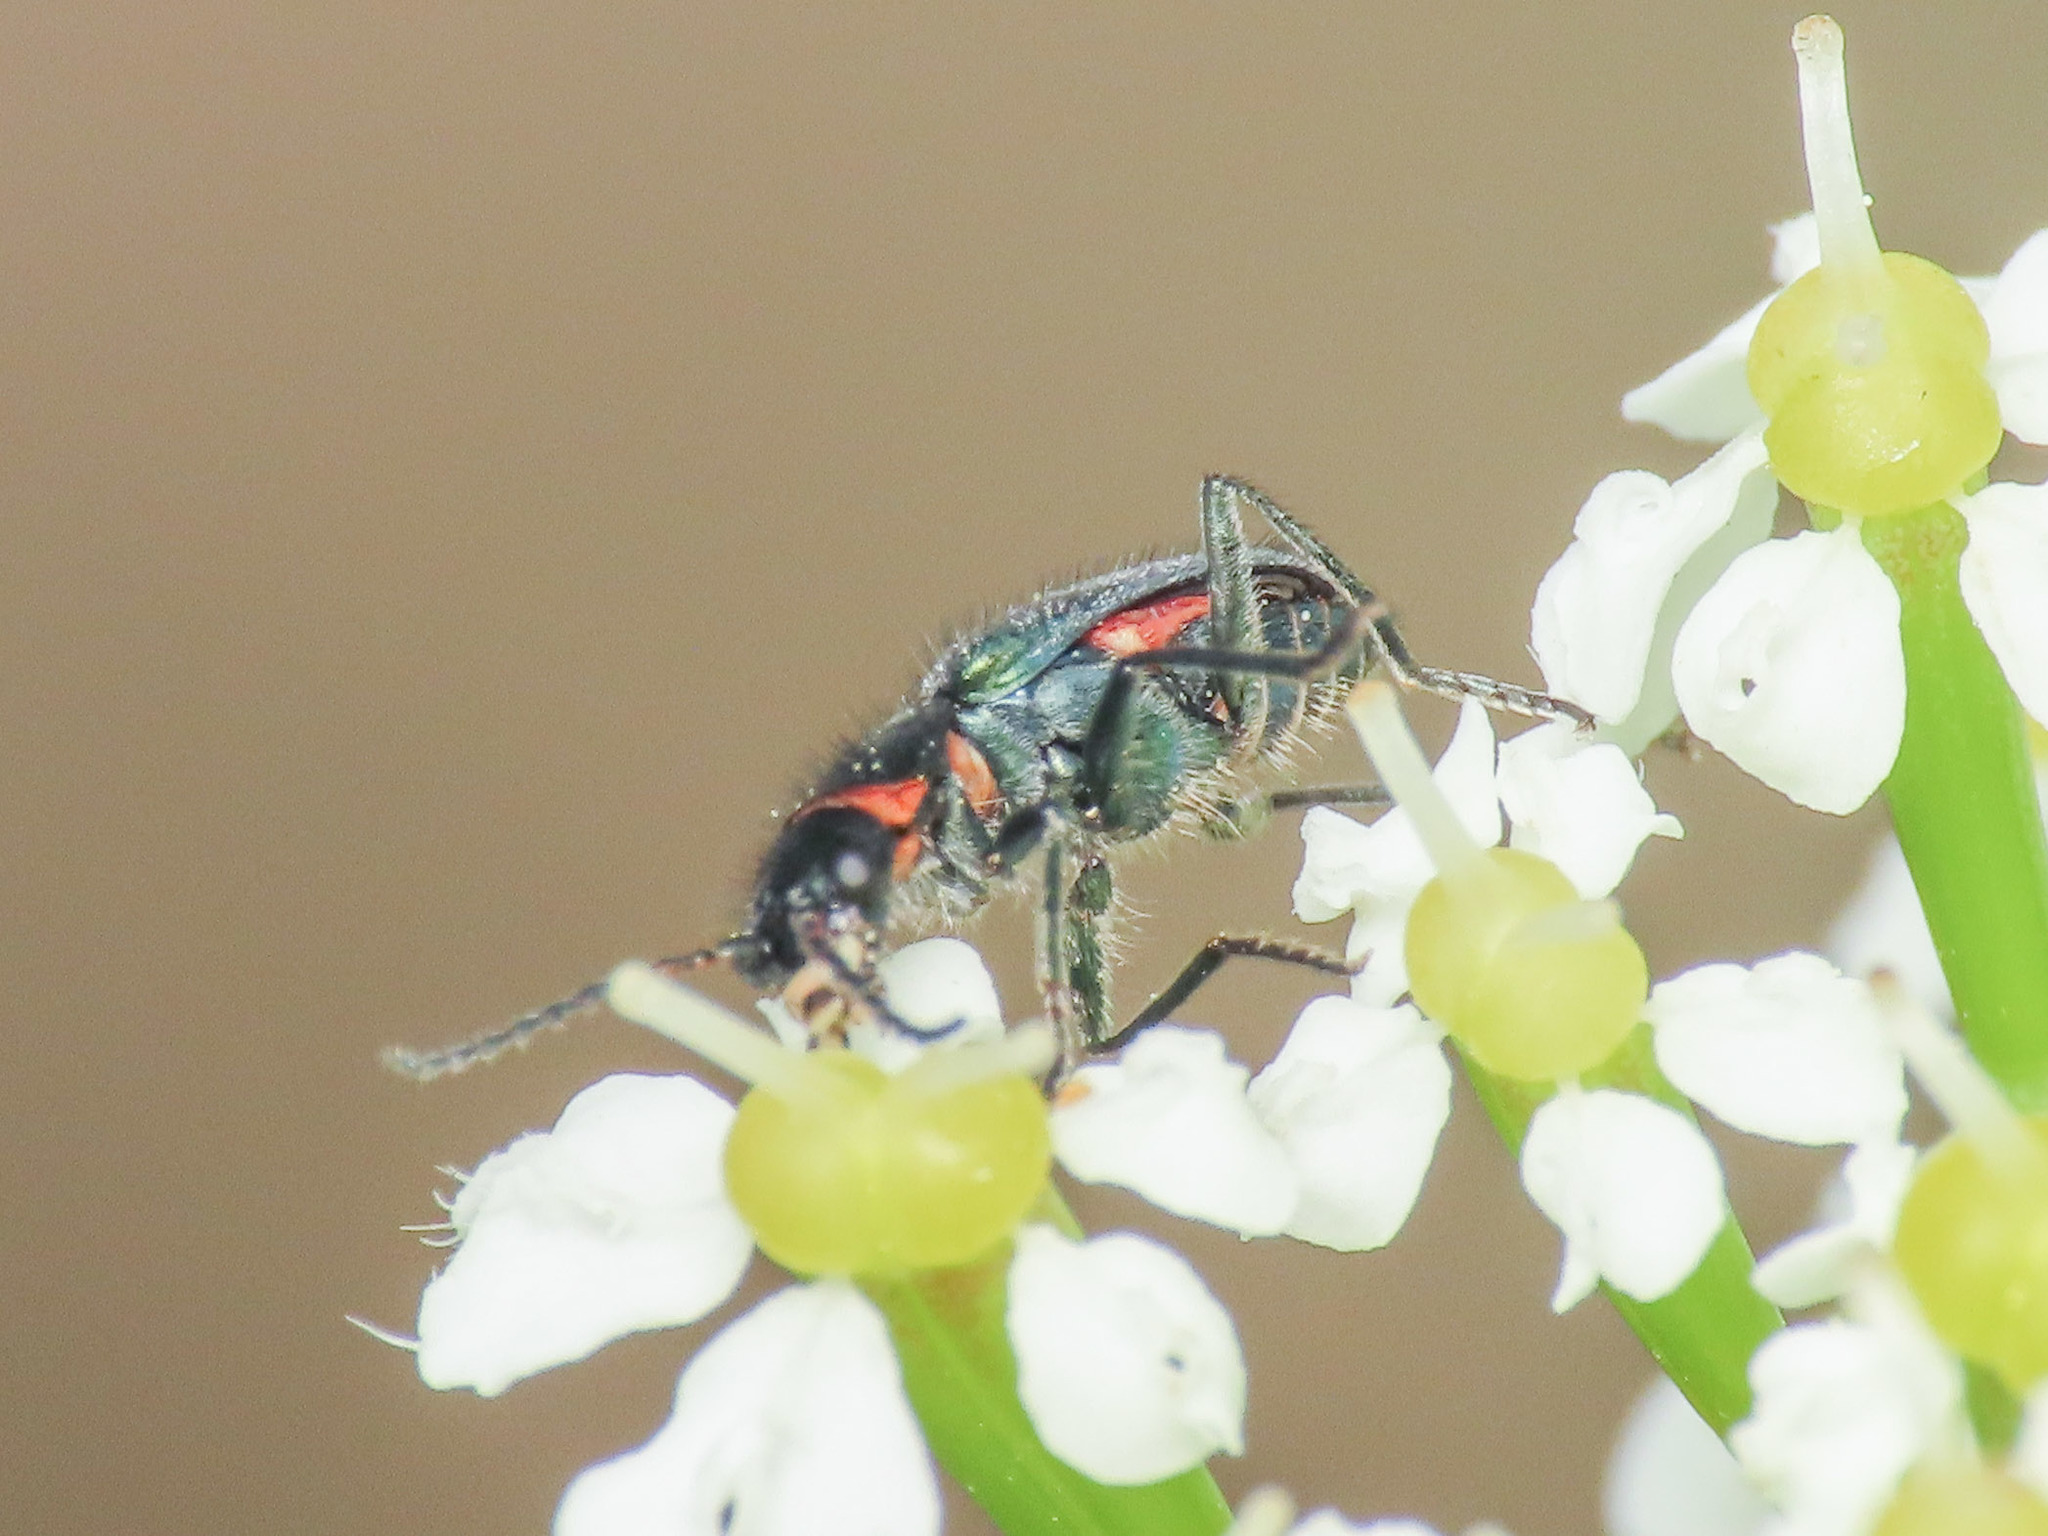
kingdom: Animalia
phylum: Arthropoda
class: Insecta
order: Coleoptera
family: Malachiidae
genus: Clanoptilus
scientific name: Clanoptilus affinis
